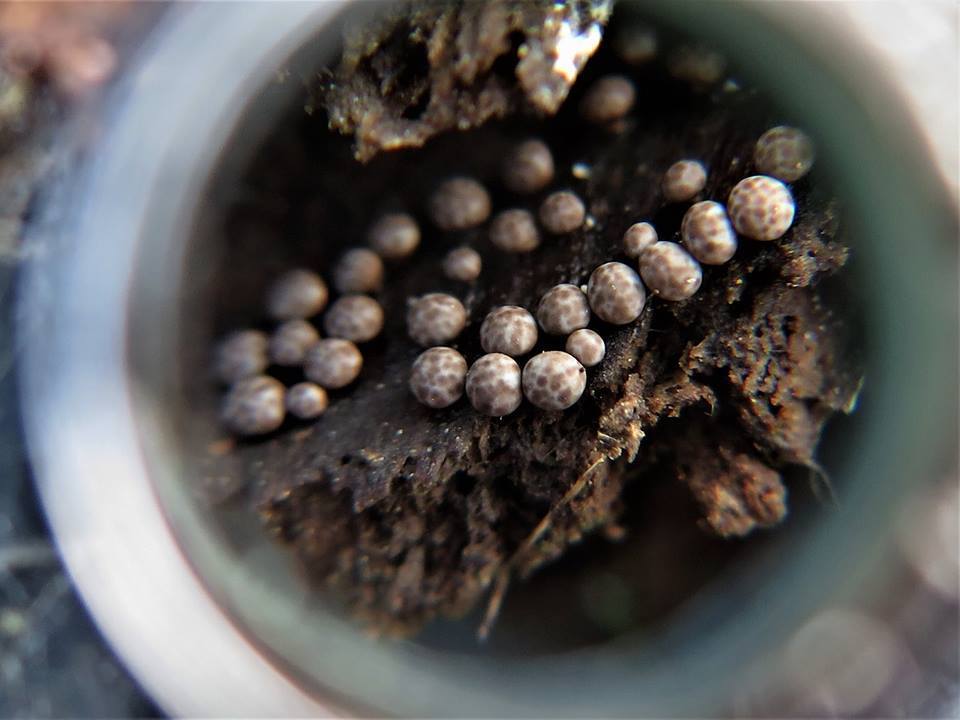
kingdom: Protozoa
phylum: Mycetozoa
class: Myxomycetes
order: Physarales
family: Didymiaceae
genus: Diderma
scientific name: Diderma radiatum
